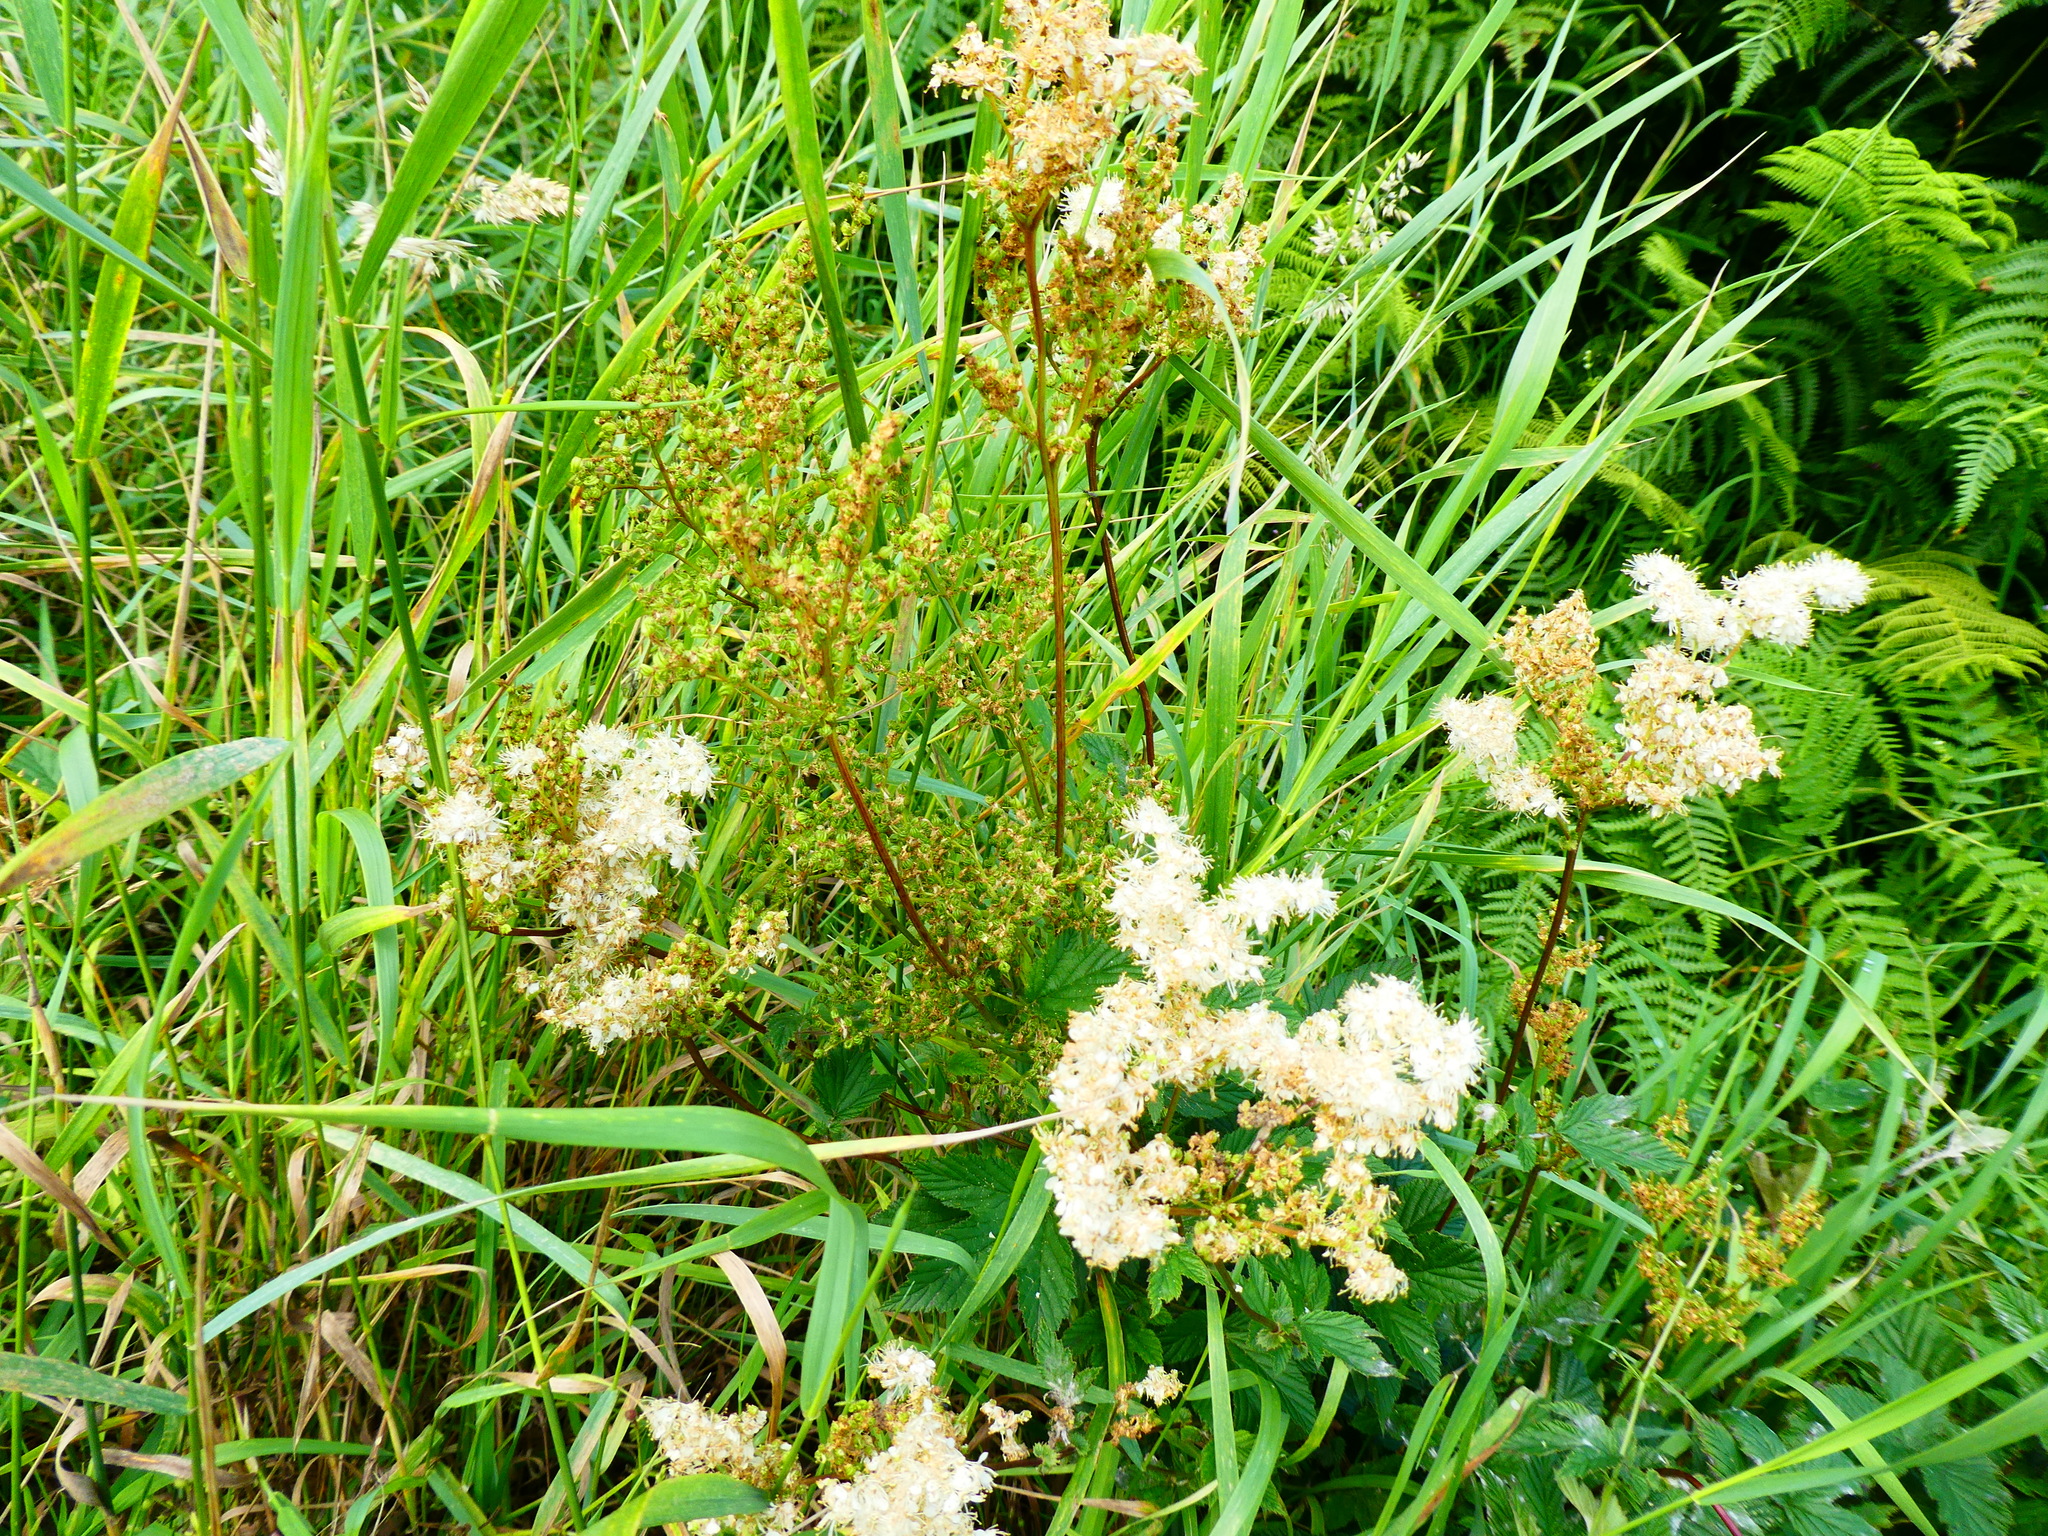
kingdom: Plantae
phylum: Tracheophyta
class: Magnoliopsida
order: Rosales
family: Rosaceae
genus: Filipendula
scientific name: Filipendula ulmaria
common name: Meadowsweet
